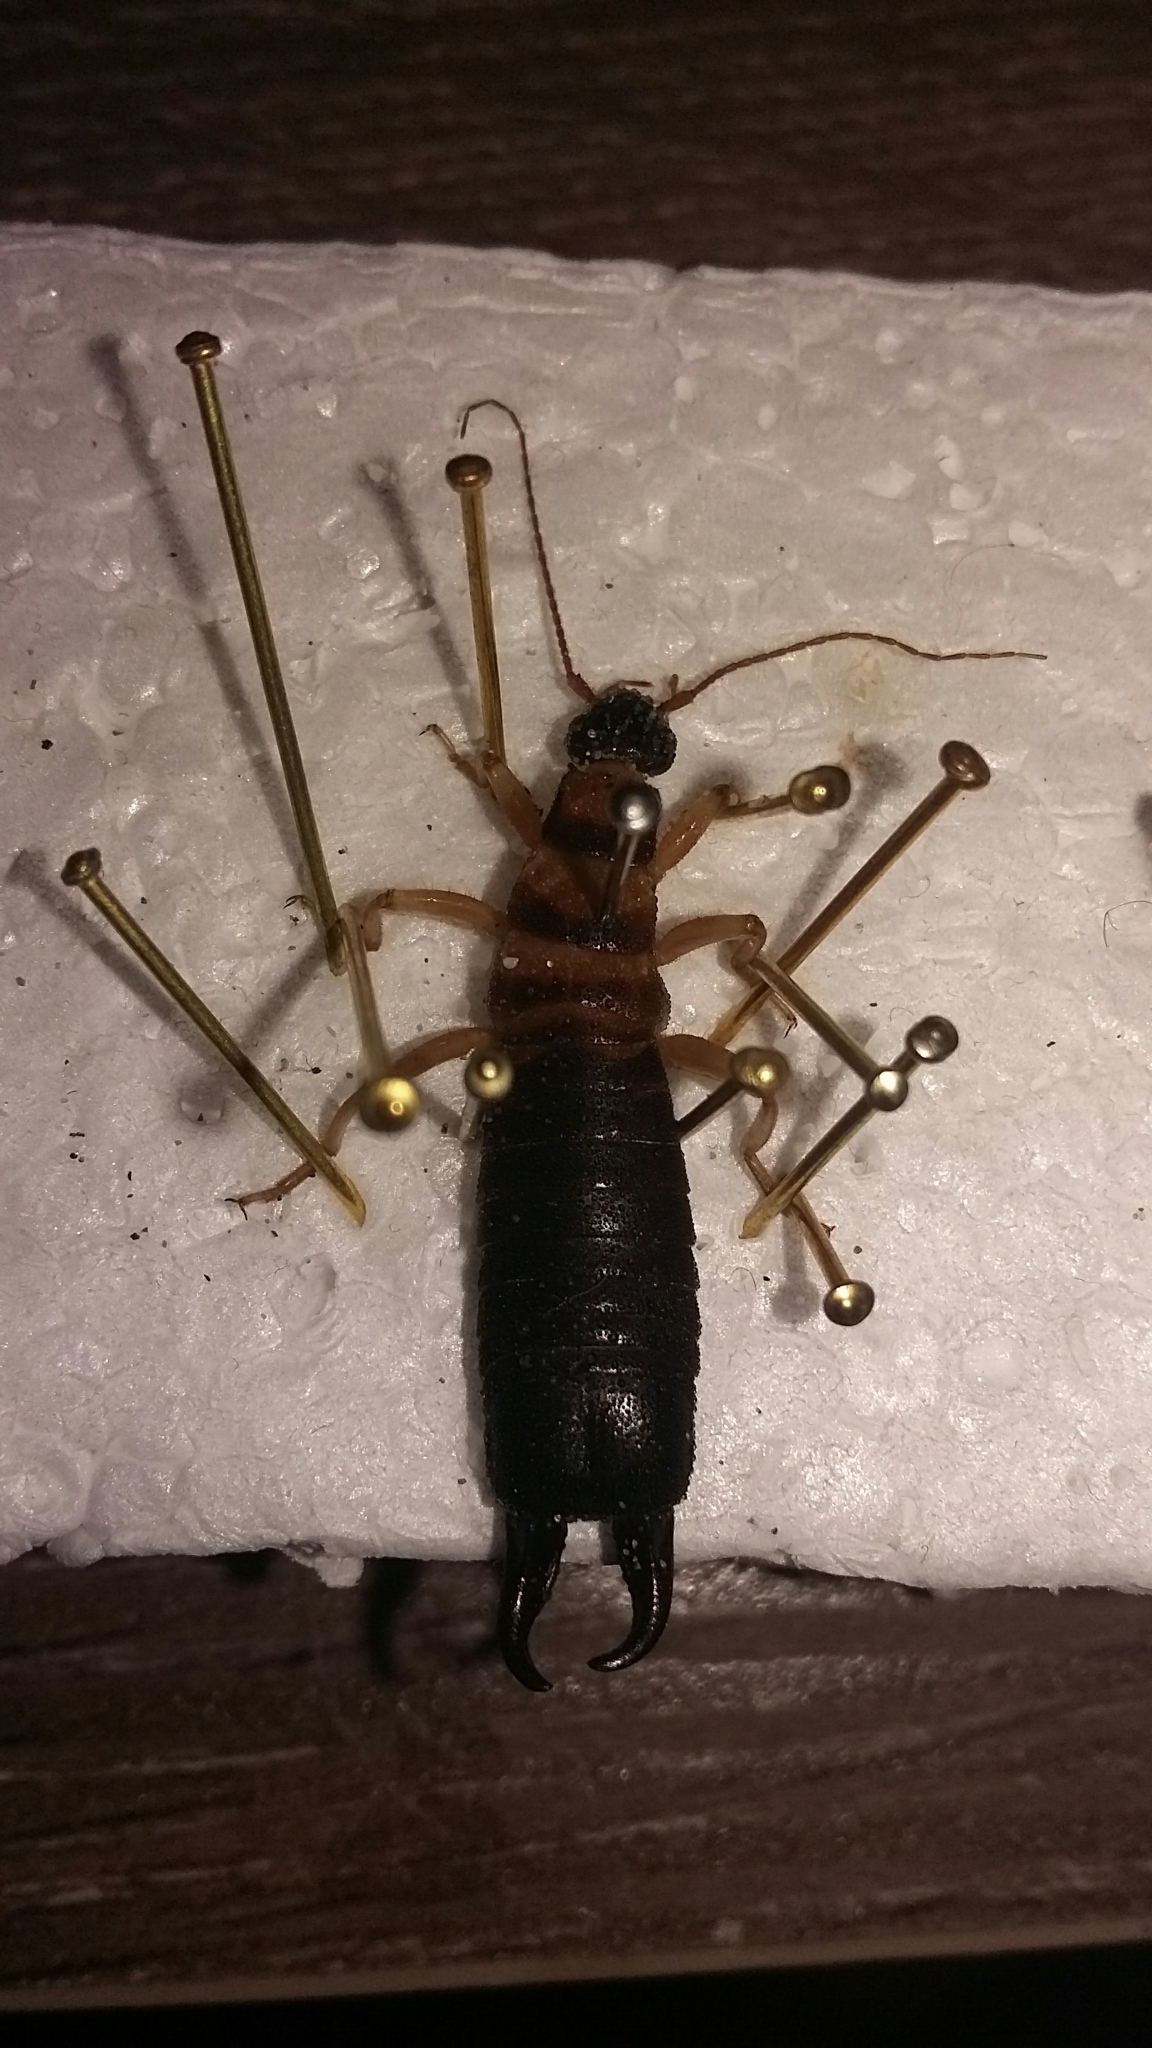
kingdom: Animalia
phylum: Arthropoda
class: Insecta
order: Dermaptera
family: Anisolabididae
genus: Anisolabis
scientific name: Anisolabis littorea
